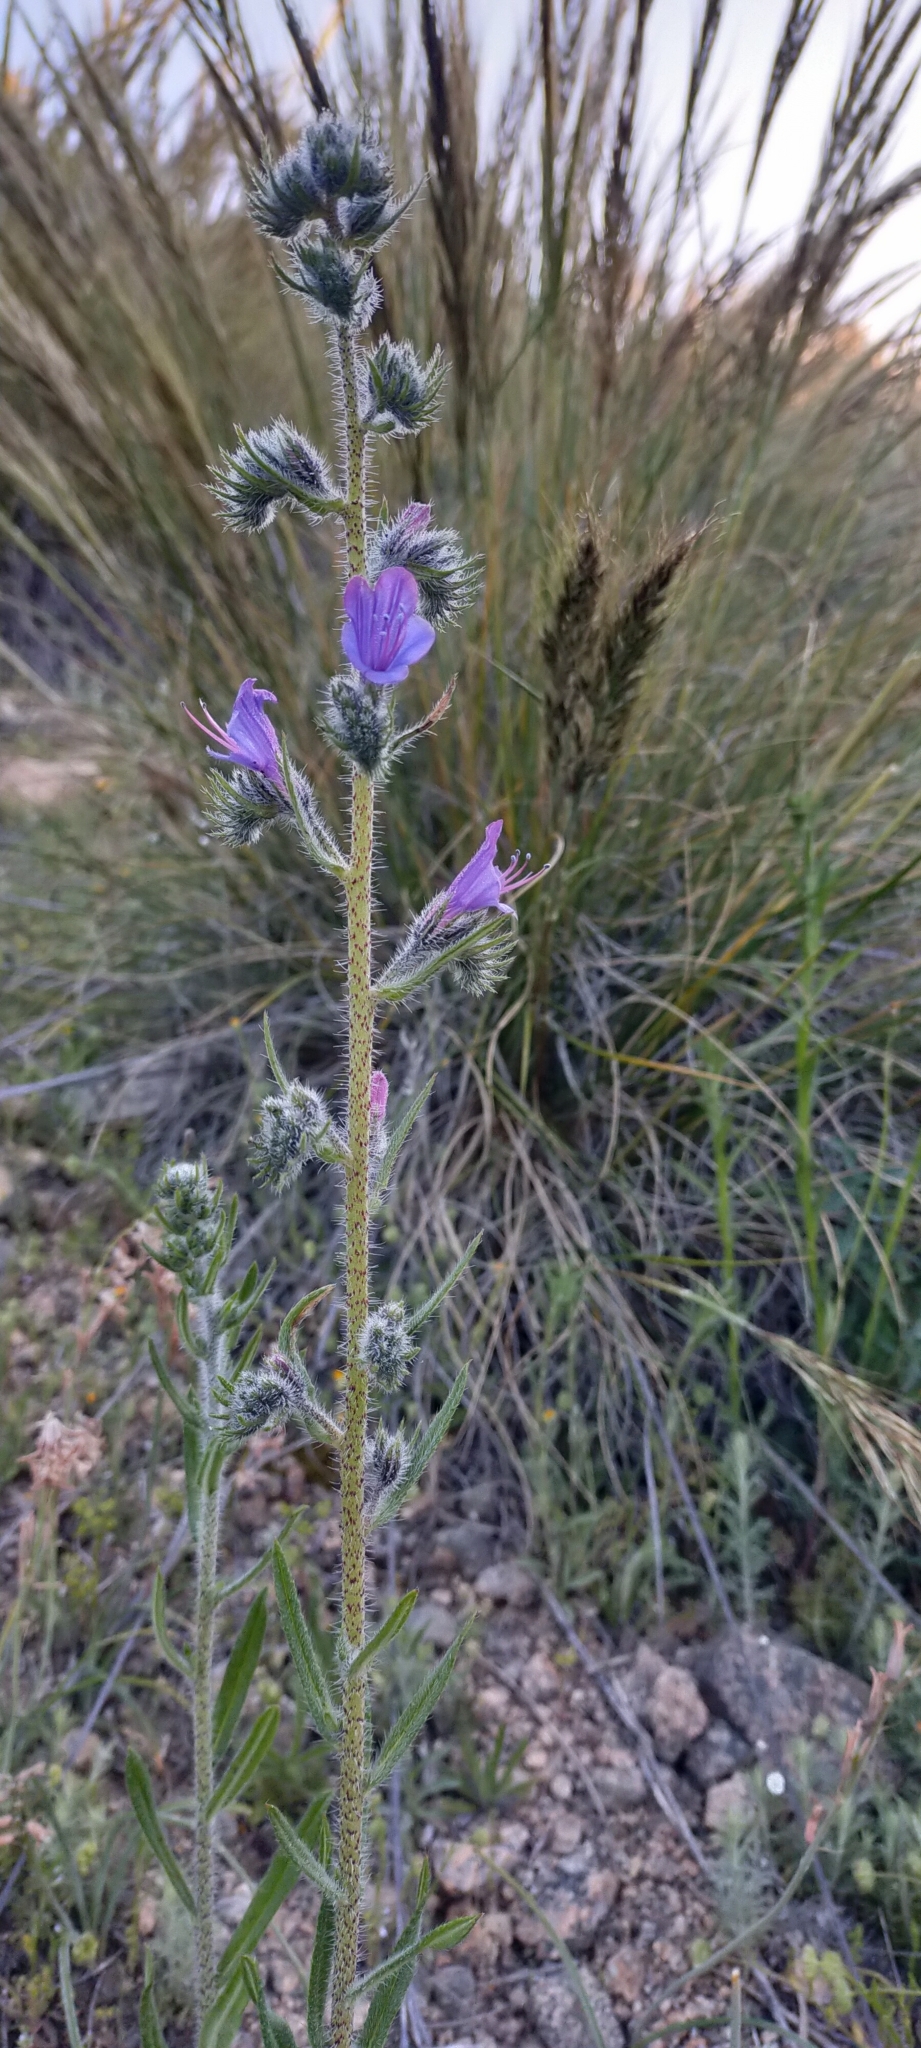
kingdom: Plantae
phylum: Tracheophyta
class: Magnoliopsida
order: Boraginales
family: Boraginaceae
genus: Echium
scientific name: Echium vulgare
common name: Common viper's bugloss
